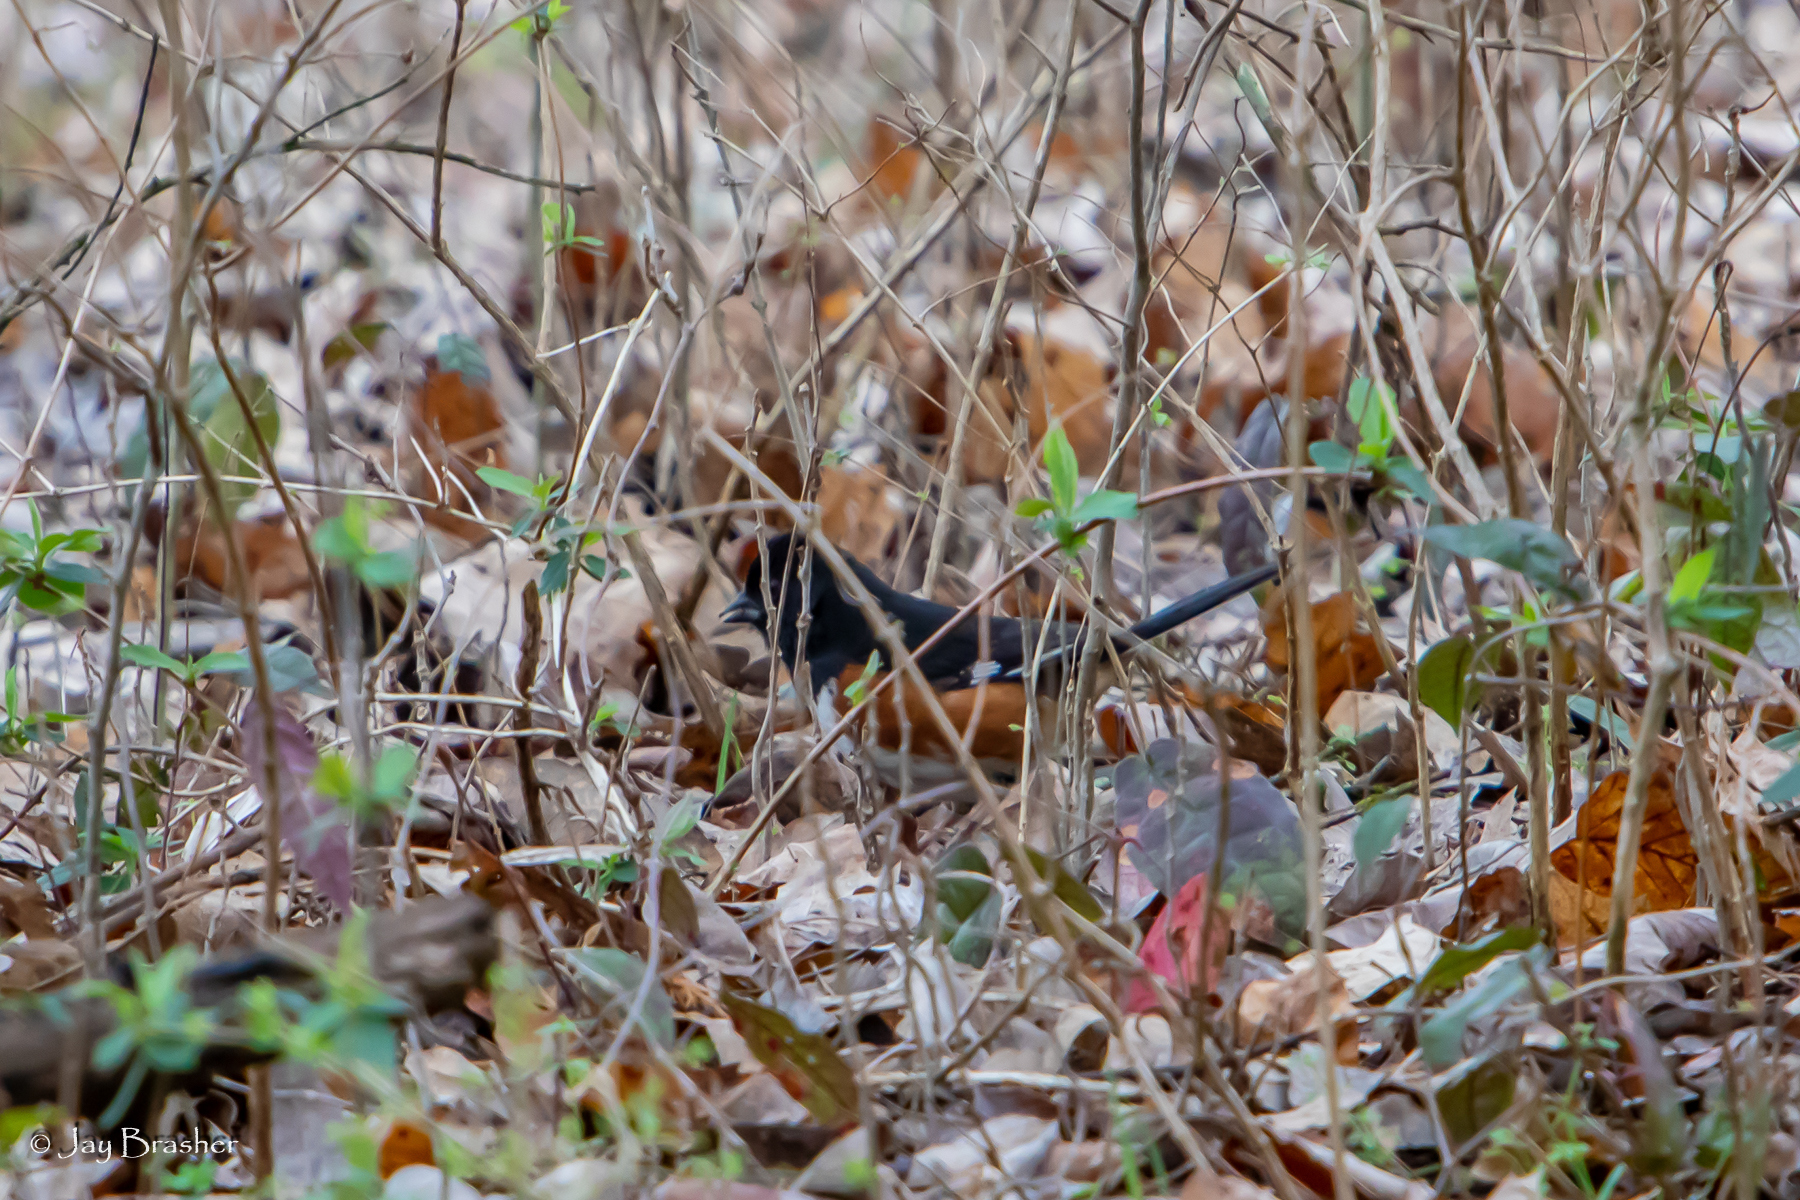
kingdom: Animalia
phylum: Chordata
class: Aves
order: Passeriformes
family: Passerellidae
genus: Pipilo
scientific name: Pipilo erythrophthalmus
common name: Eastern towhee
